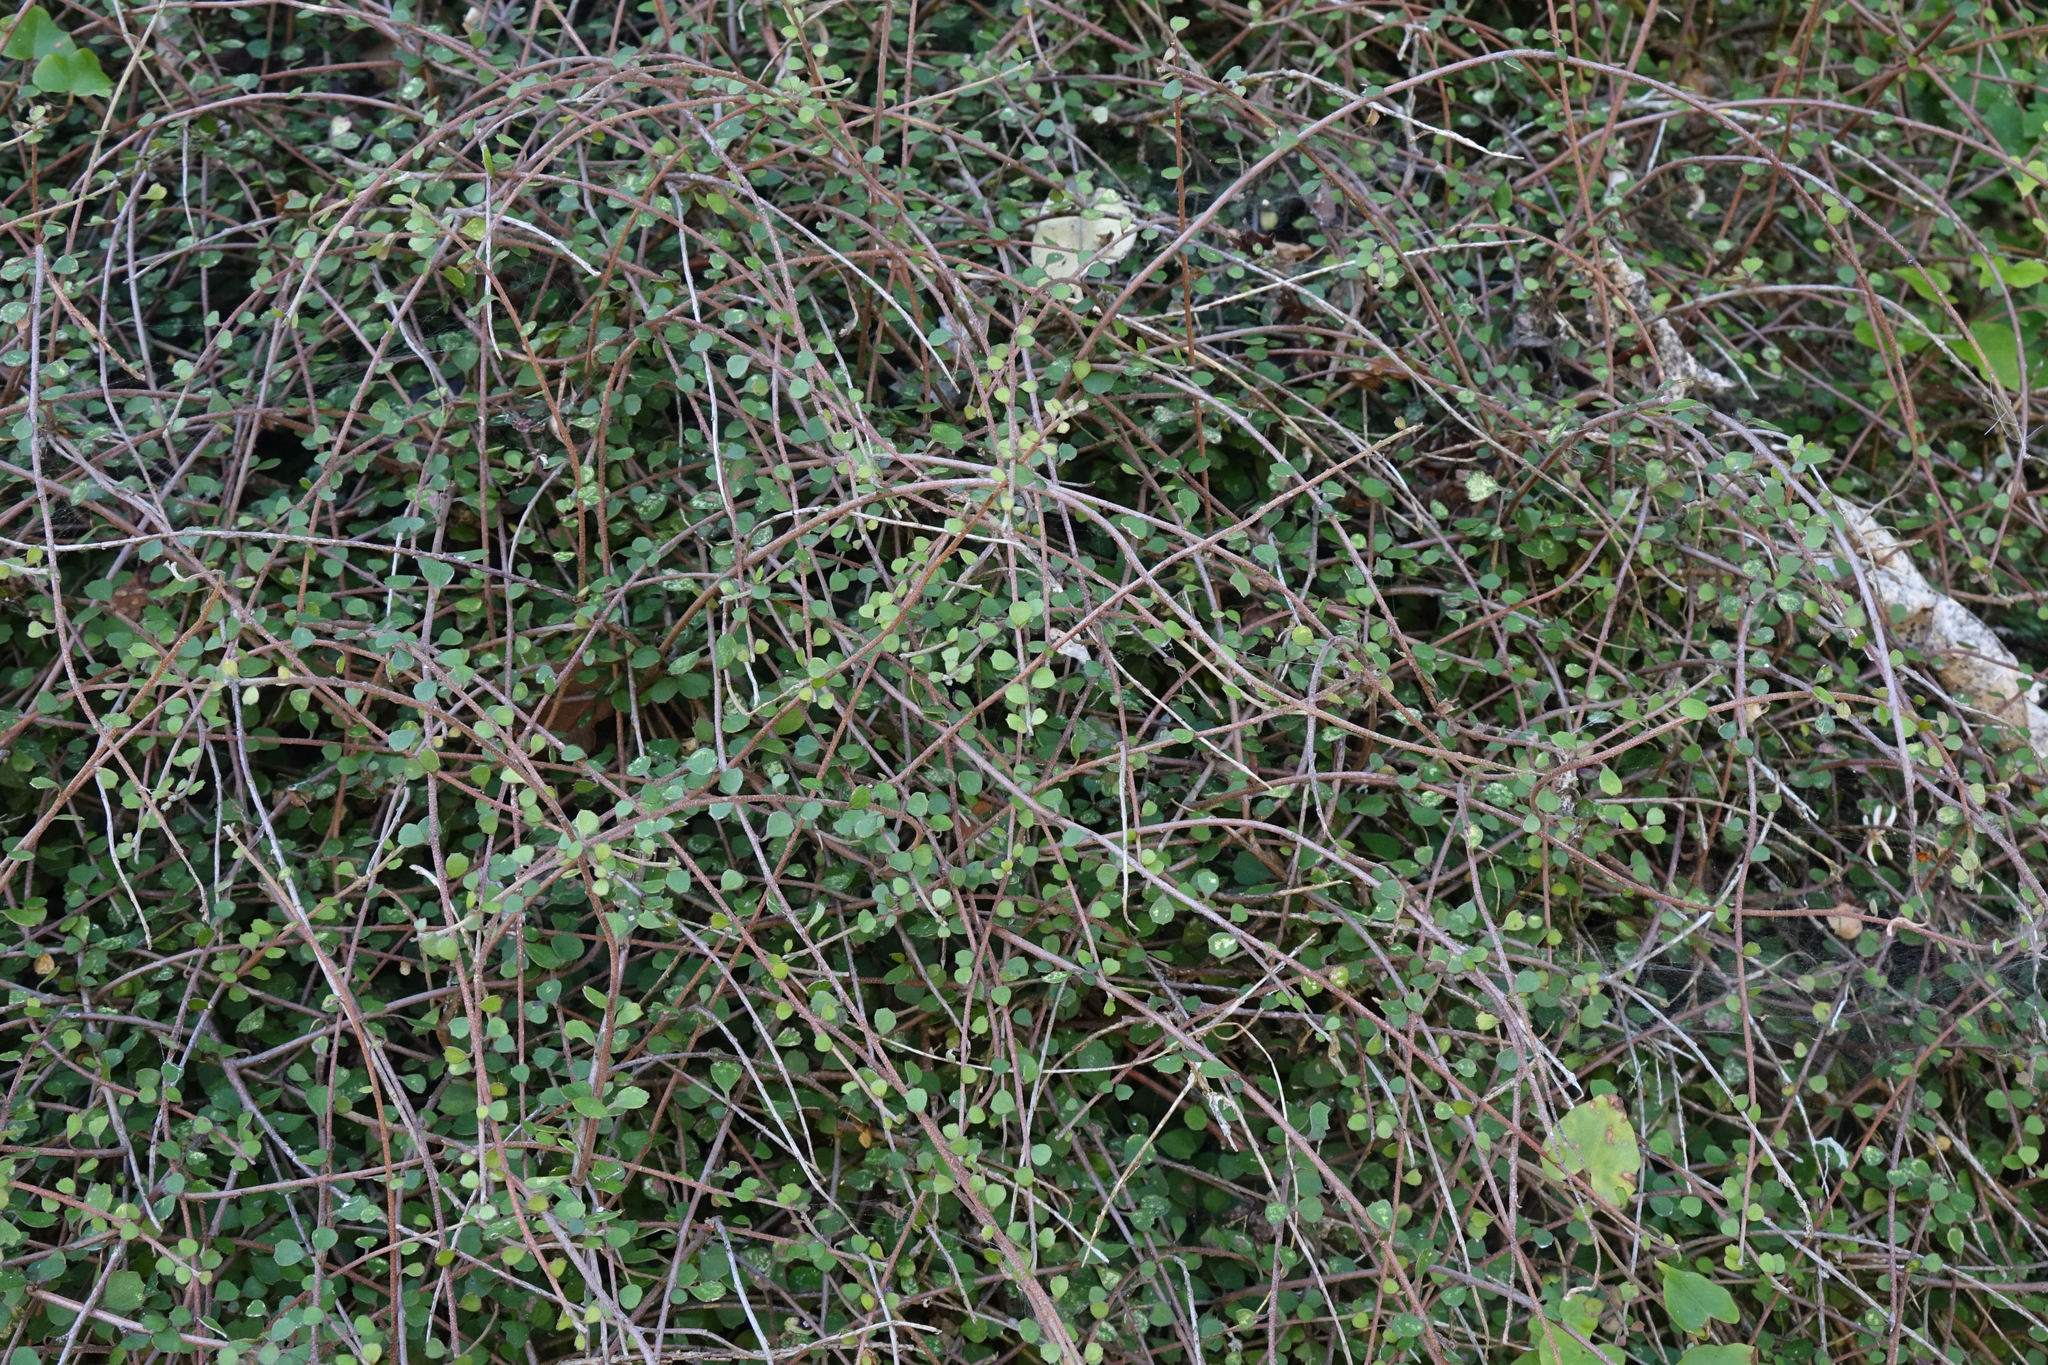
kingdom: Plantae
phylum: Tracheophyta
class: Magnoliopsida
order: Malvales
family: Malvaceae
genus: Hoheria
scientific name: Hoheria angustifolia
